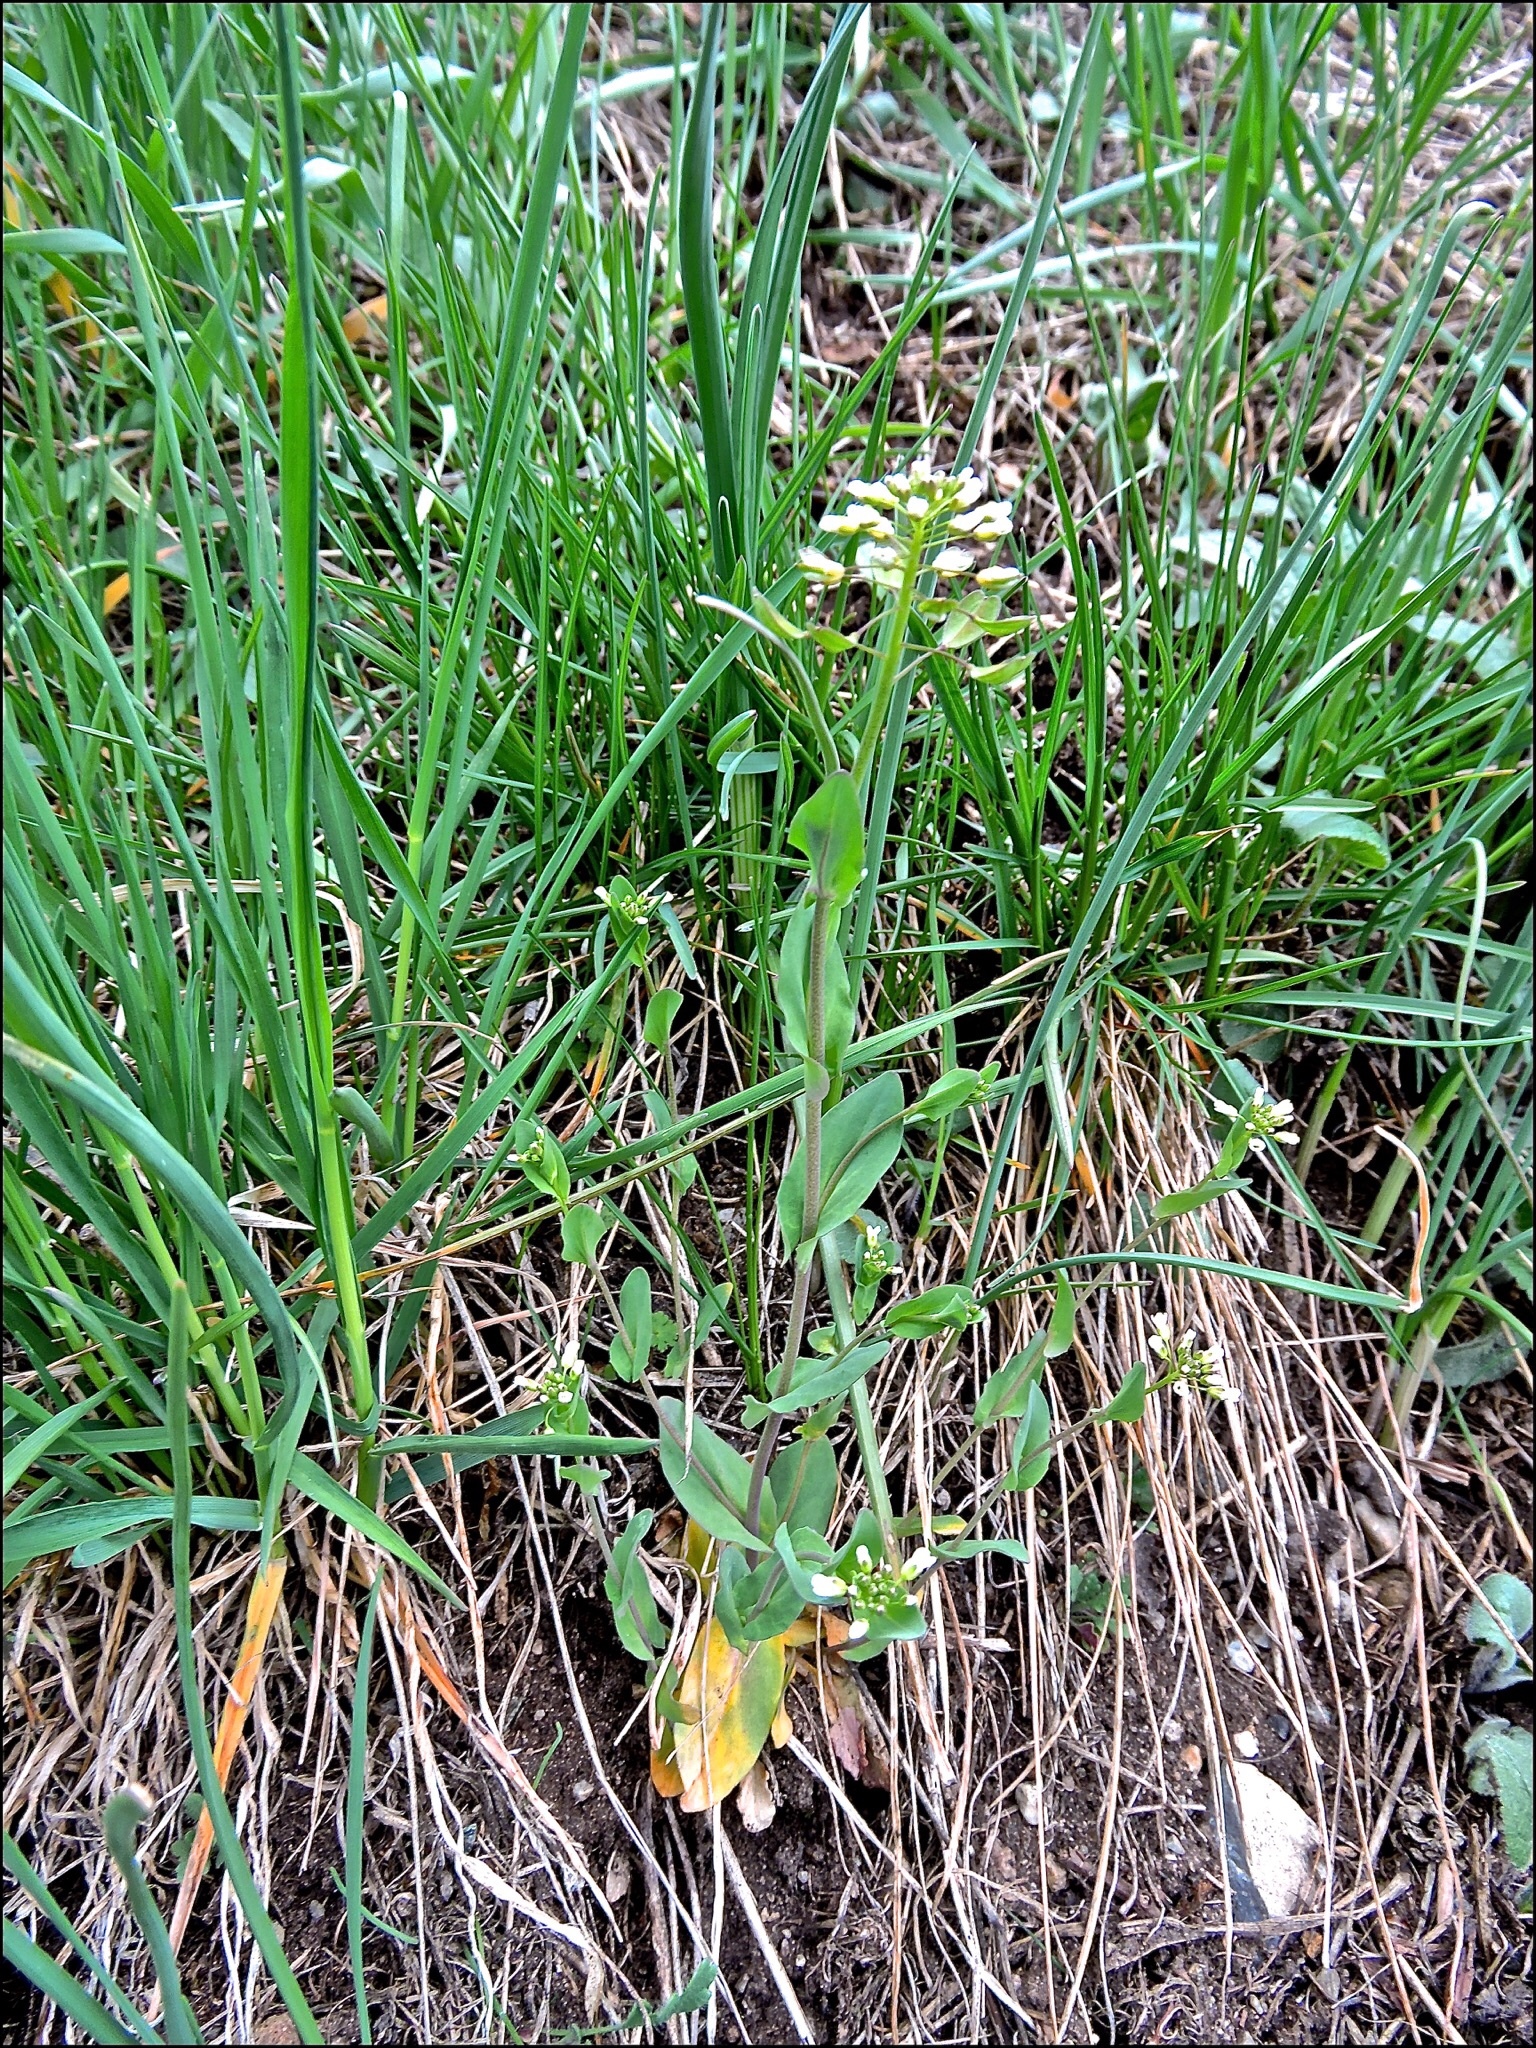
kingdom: Plantae
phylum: Tracheophyta
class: Magnoliopsida
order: Brassicales
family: Brassicaceae
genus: Noccaea
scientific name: Noccaea perfoliata
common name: Perfoliate pennycress
